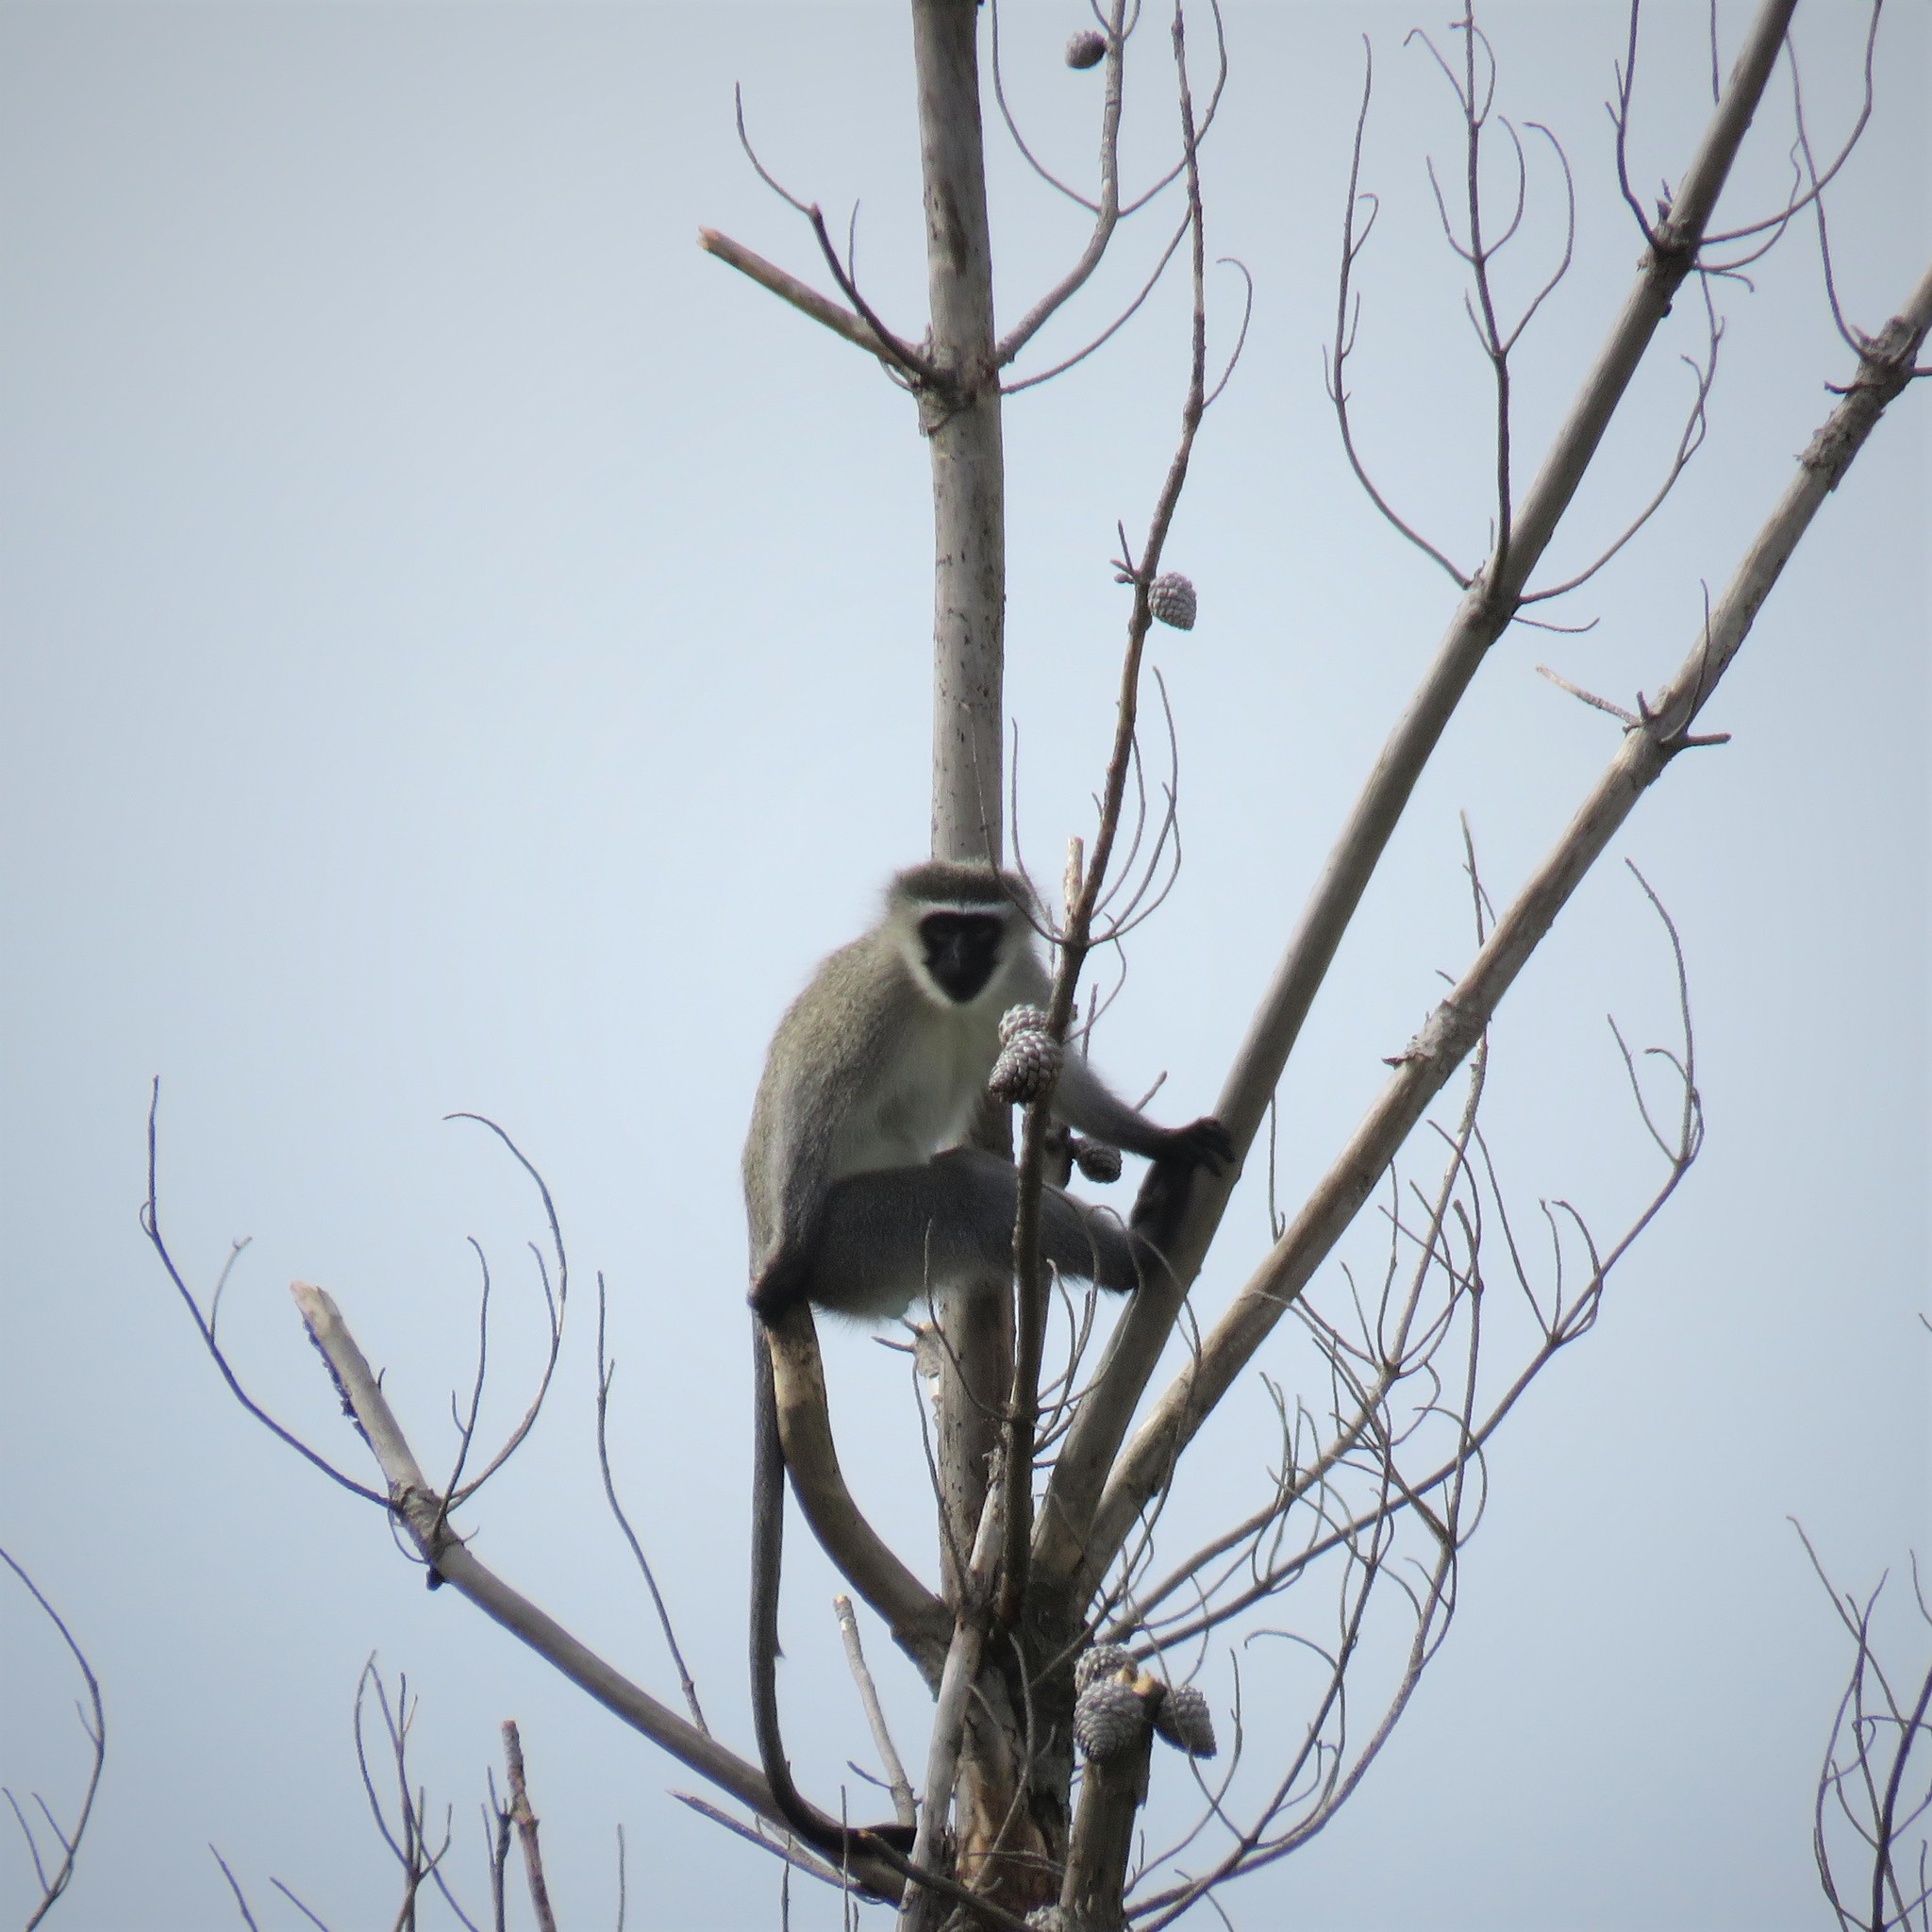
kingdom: Animalia
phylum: Chordata
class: Mammalia
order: Primates
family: Cercopithecidae
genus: Chlorocebus
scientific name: Chlorocebus pygerythrus
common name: Vervet monkey
